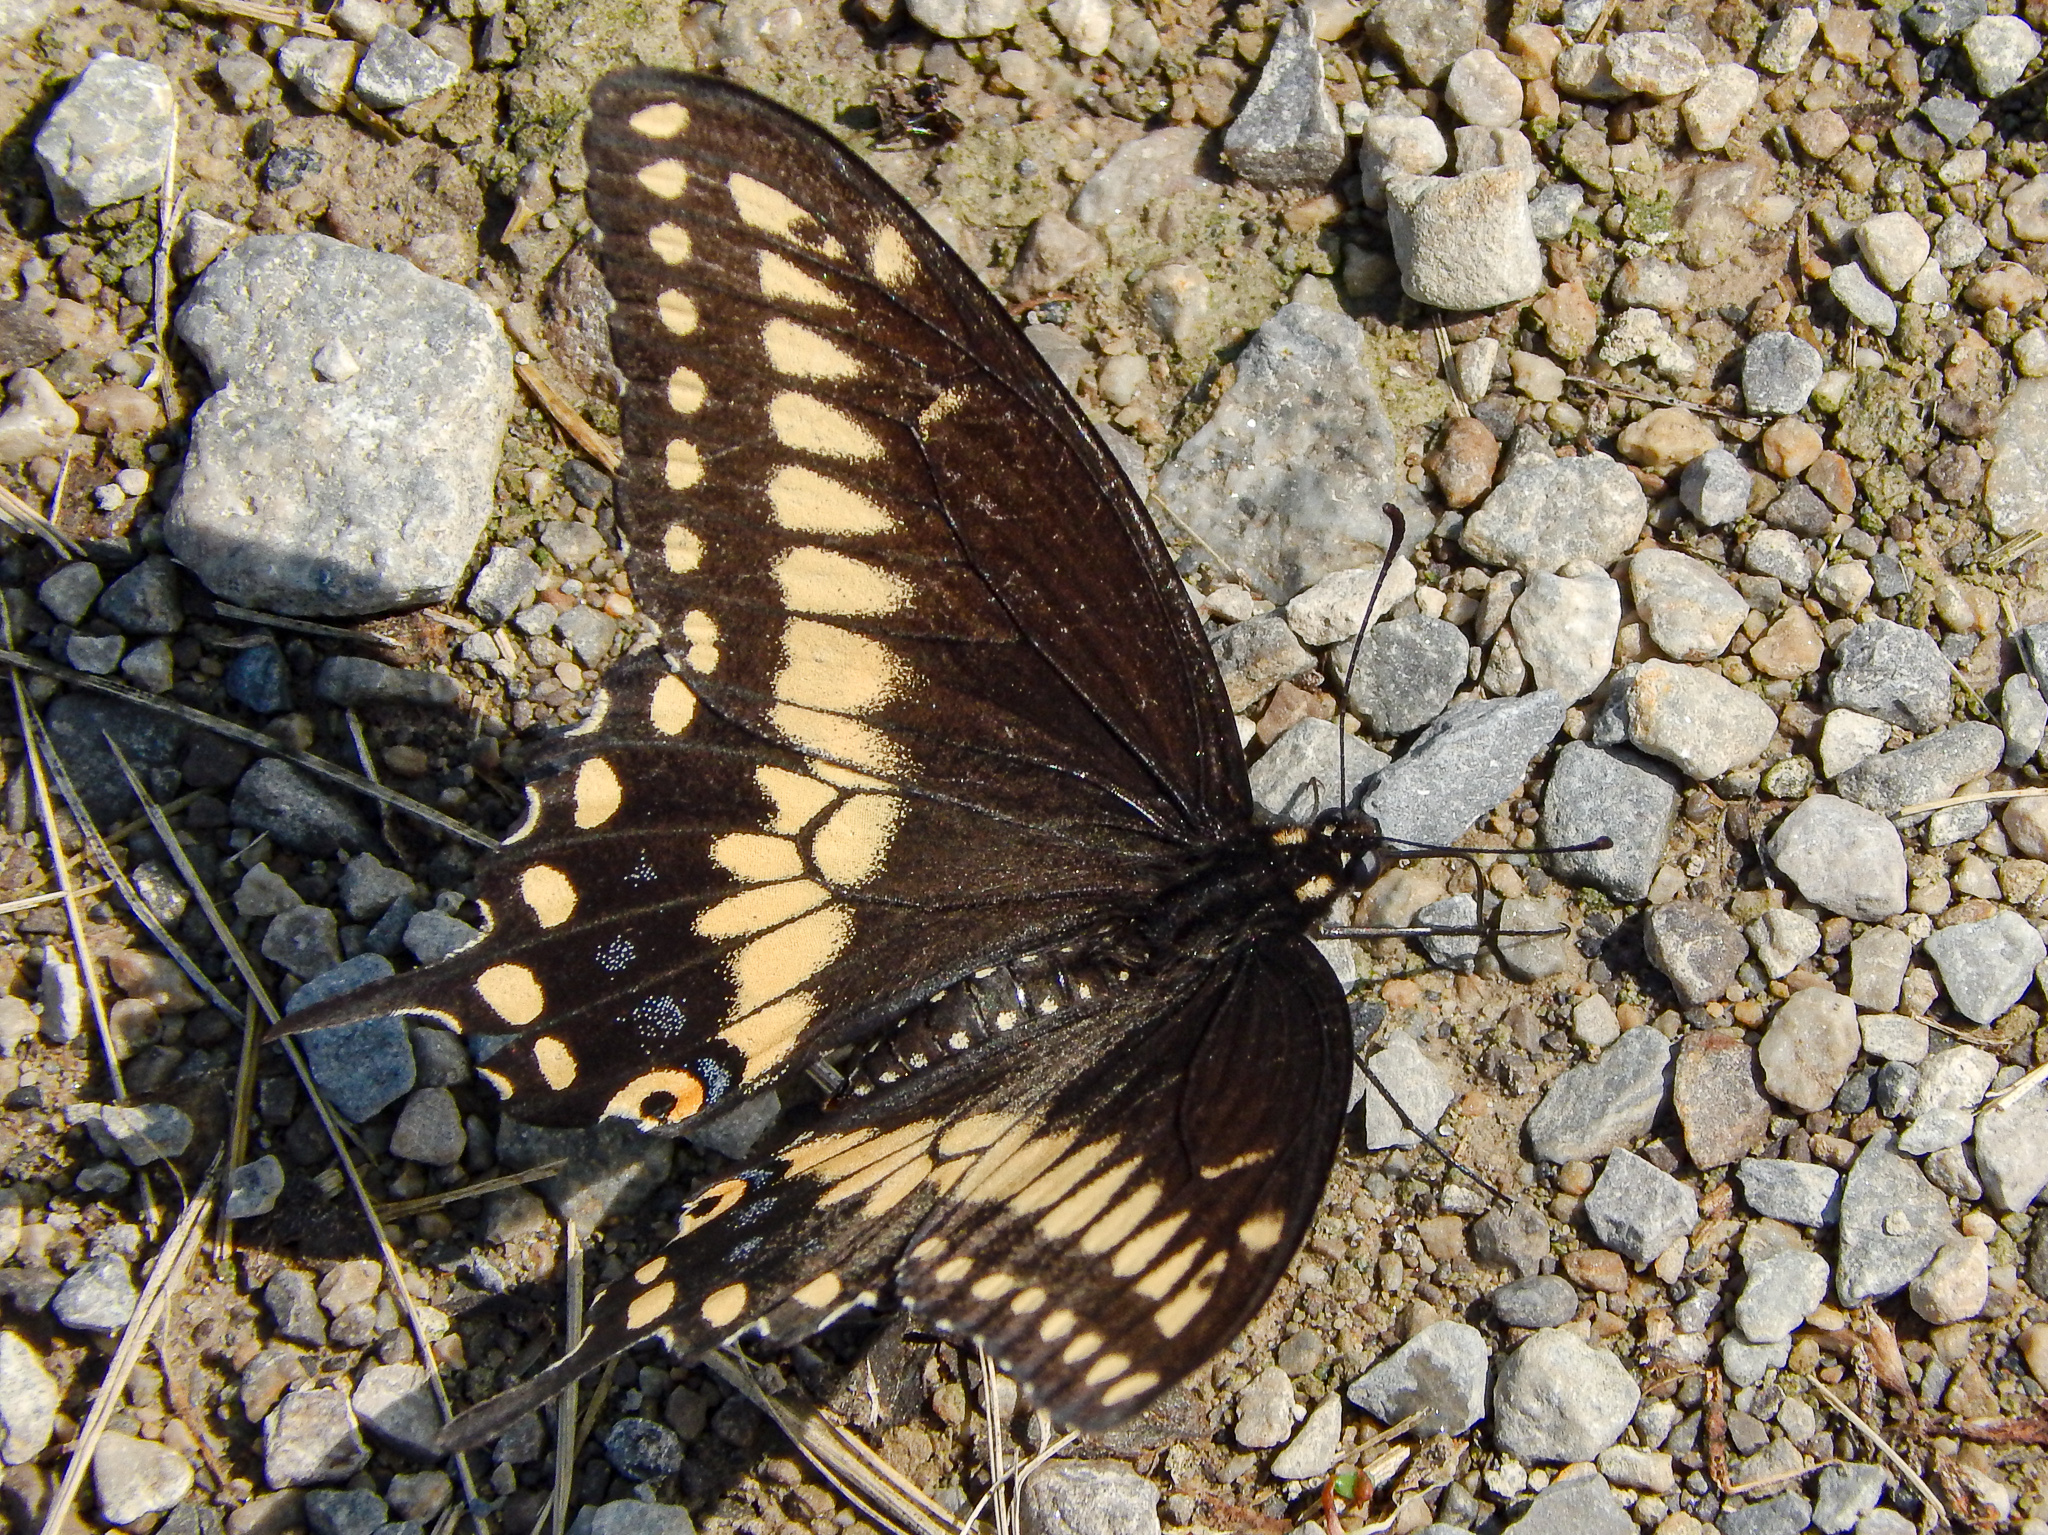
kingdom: Animalia
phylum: Arthropoda
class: Insecta
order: Lepidoptera
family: Papilionidae
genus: Papilio
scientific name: Papilio polyxenes
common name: Black swallowtail
